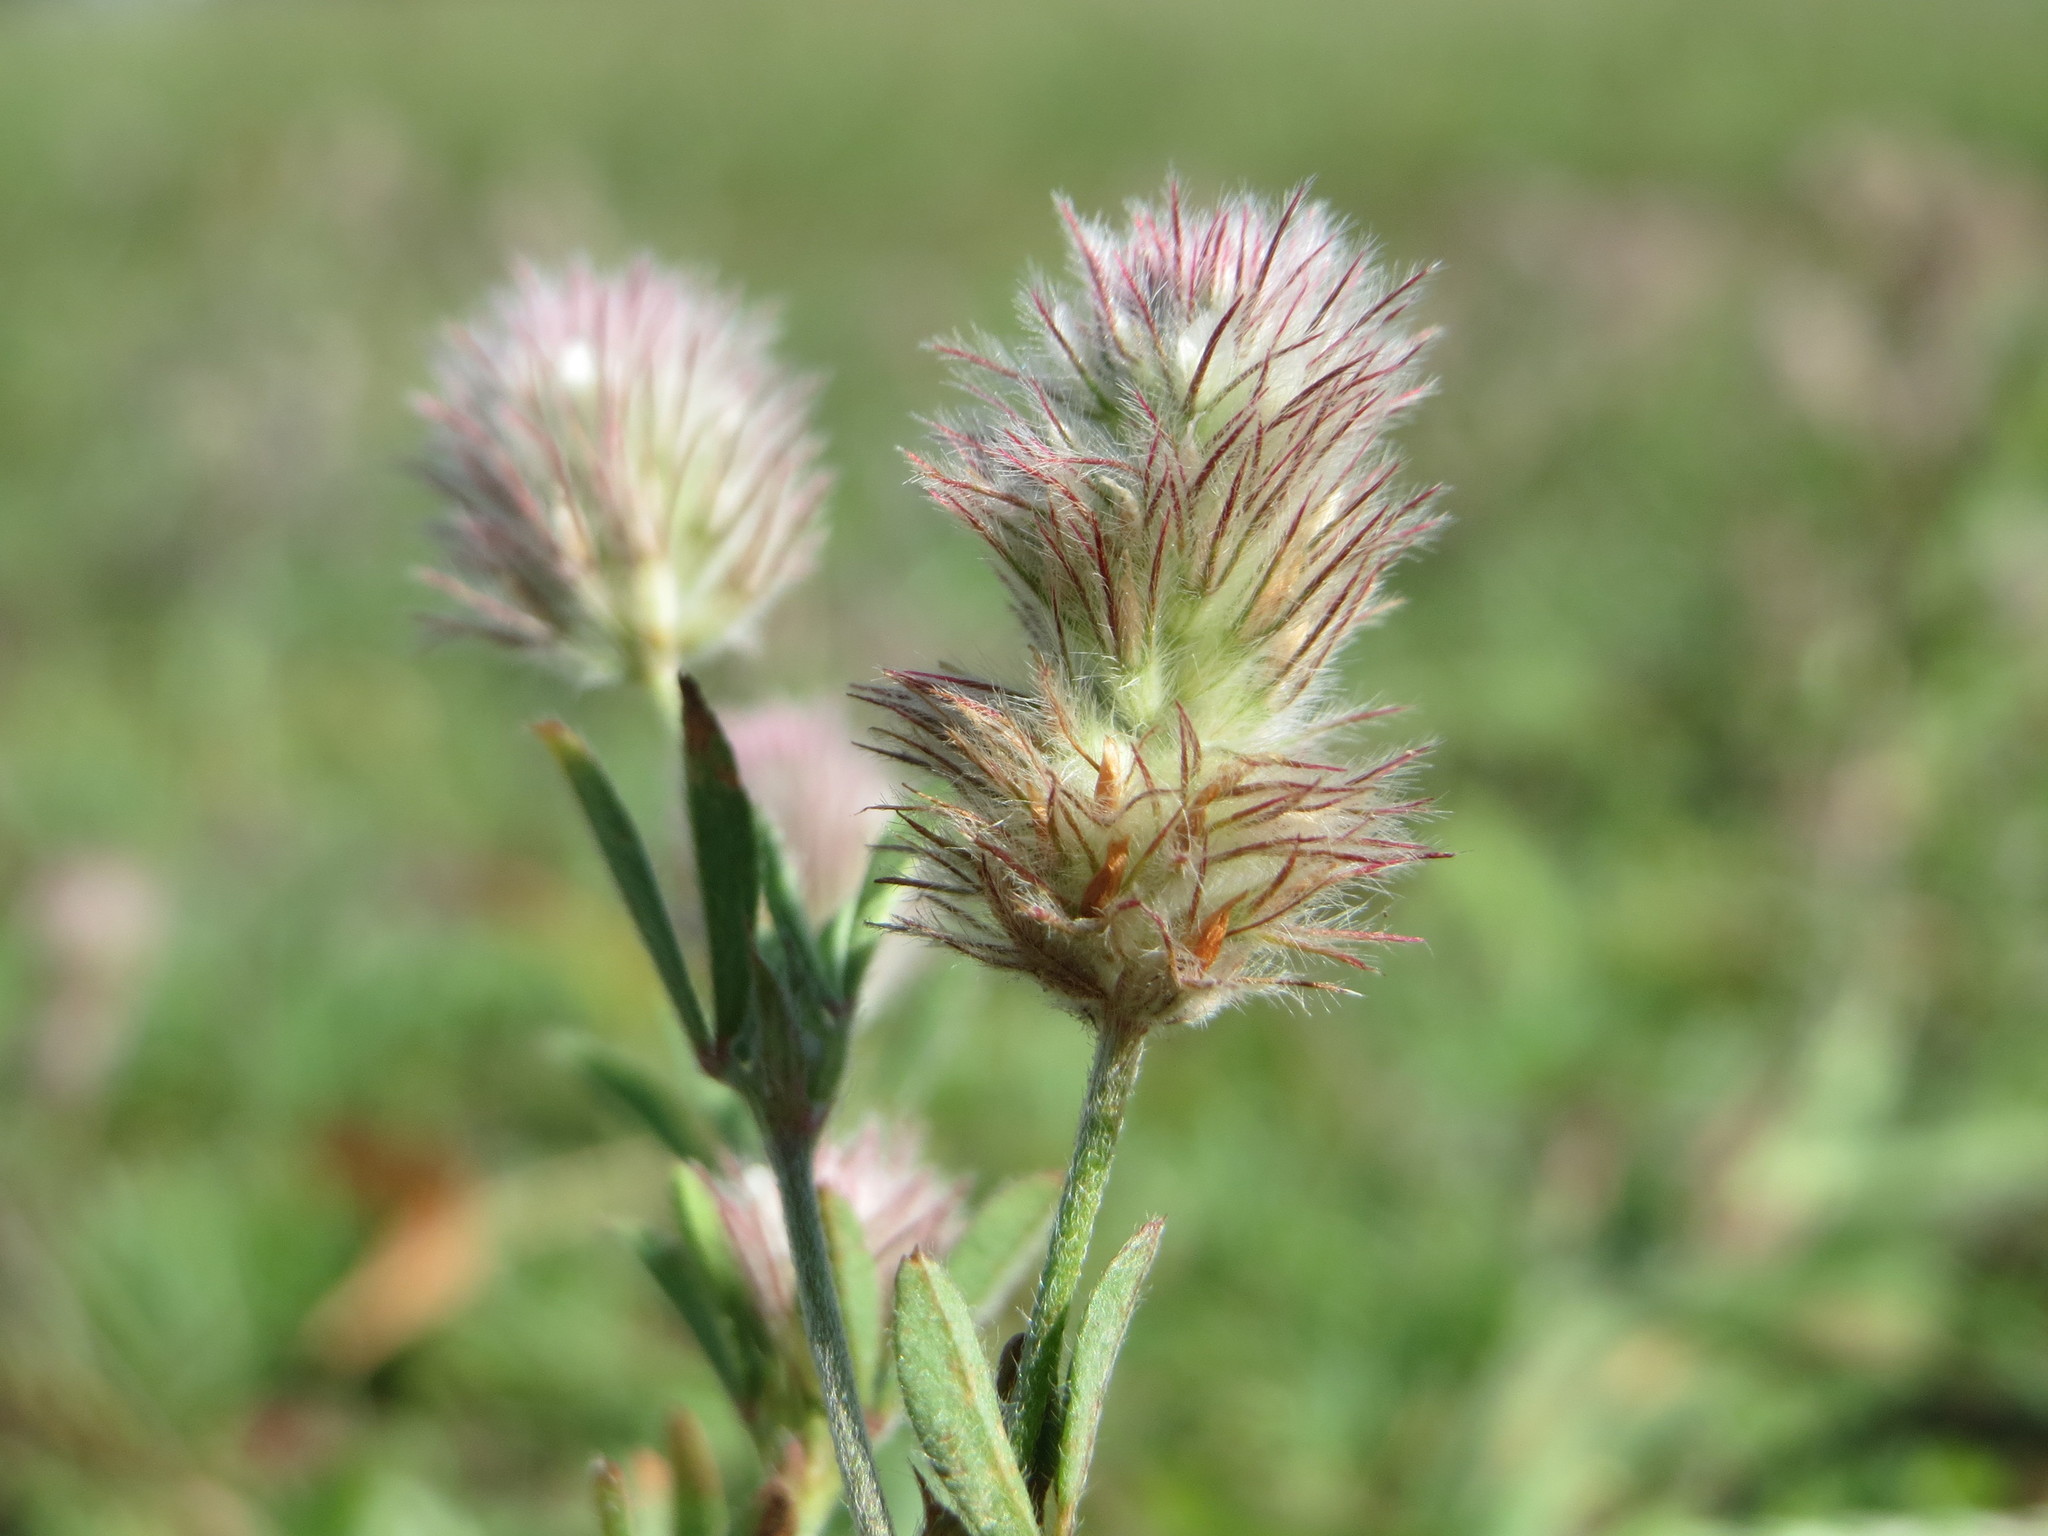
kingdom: Plantae
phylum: Tracheophyta
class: Magnoliopsida
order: Fabales
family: Fabaceae
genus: Trifolium
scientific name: Trifolium arvense
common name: Hare's-foot clover
